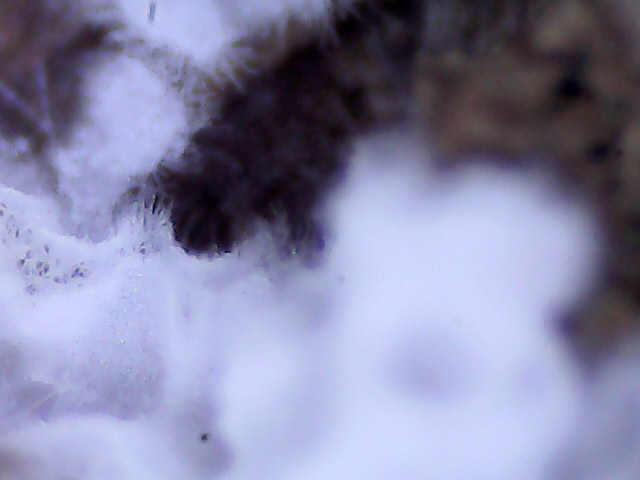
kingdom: Fungi
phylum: Basidiomycota
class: Agaricomycetes
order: Polyporales
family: Irpicaceae
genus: Ceriporia
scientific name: Ceriporia reticulata
